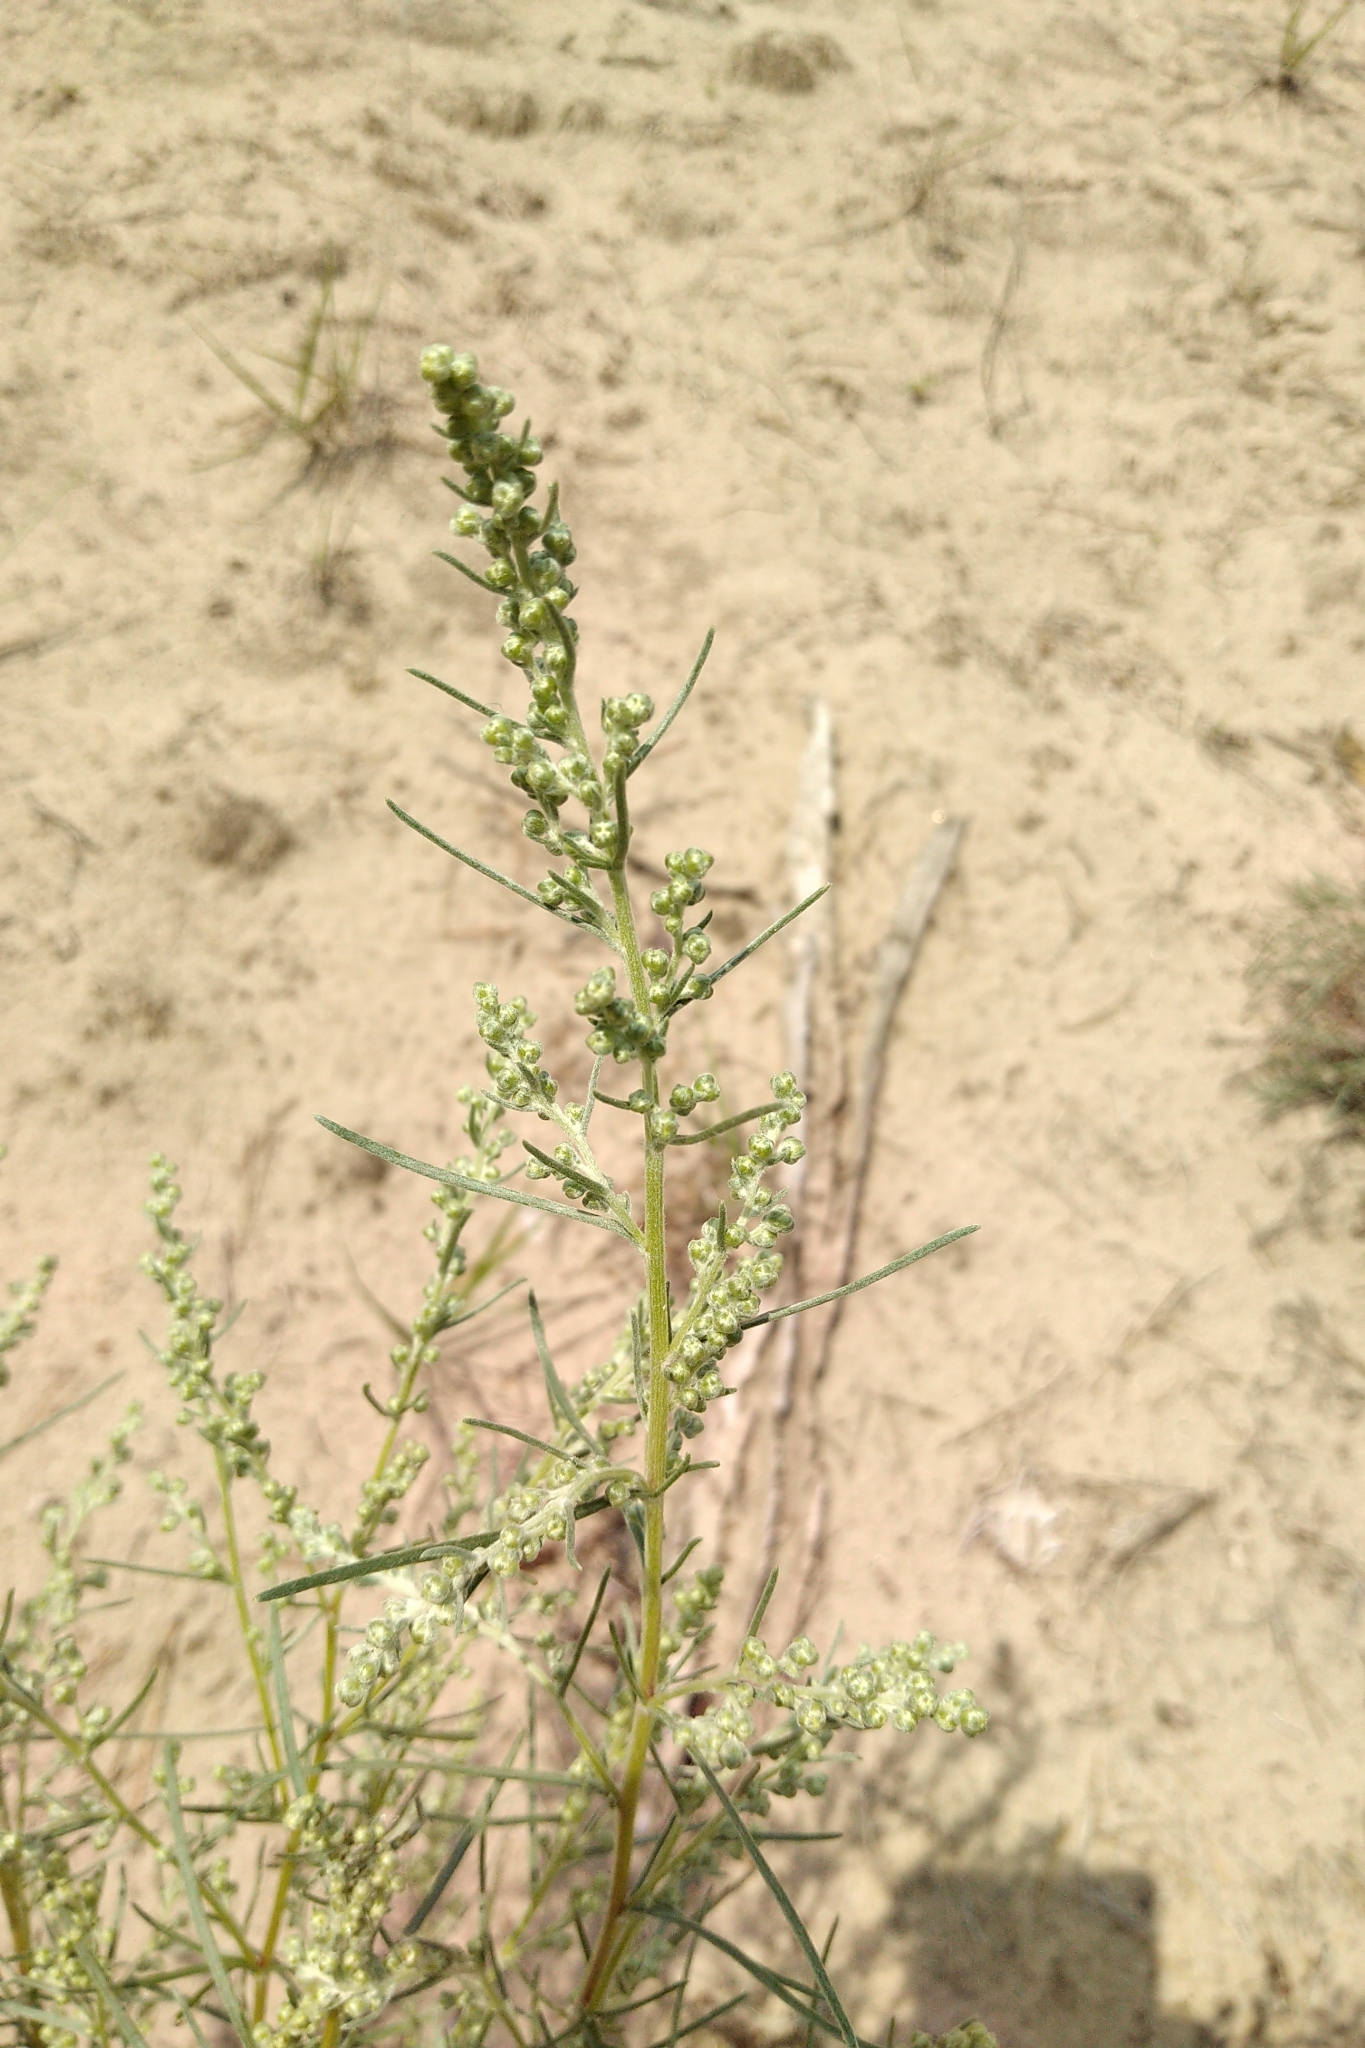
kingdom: Plantae
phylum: Tracheophyta
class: Magnoliopsida
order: Asterales
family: Asteraceae
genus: Artemisia
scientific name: Artemisia campestris
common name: Field wormwood
